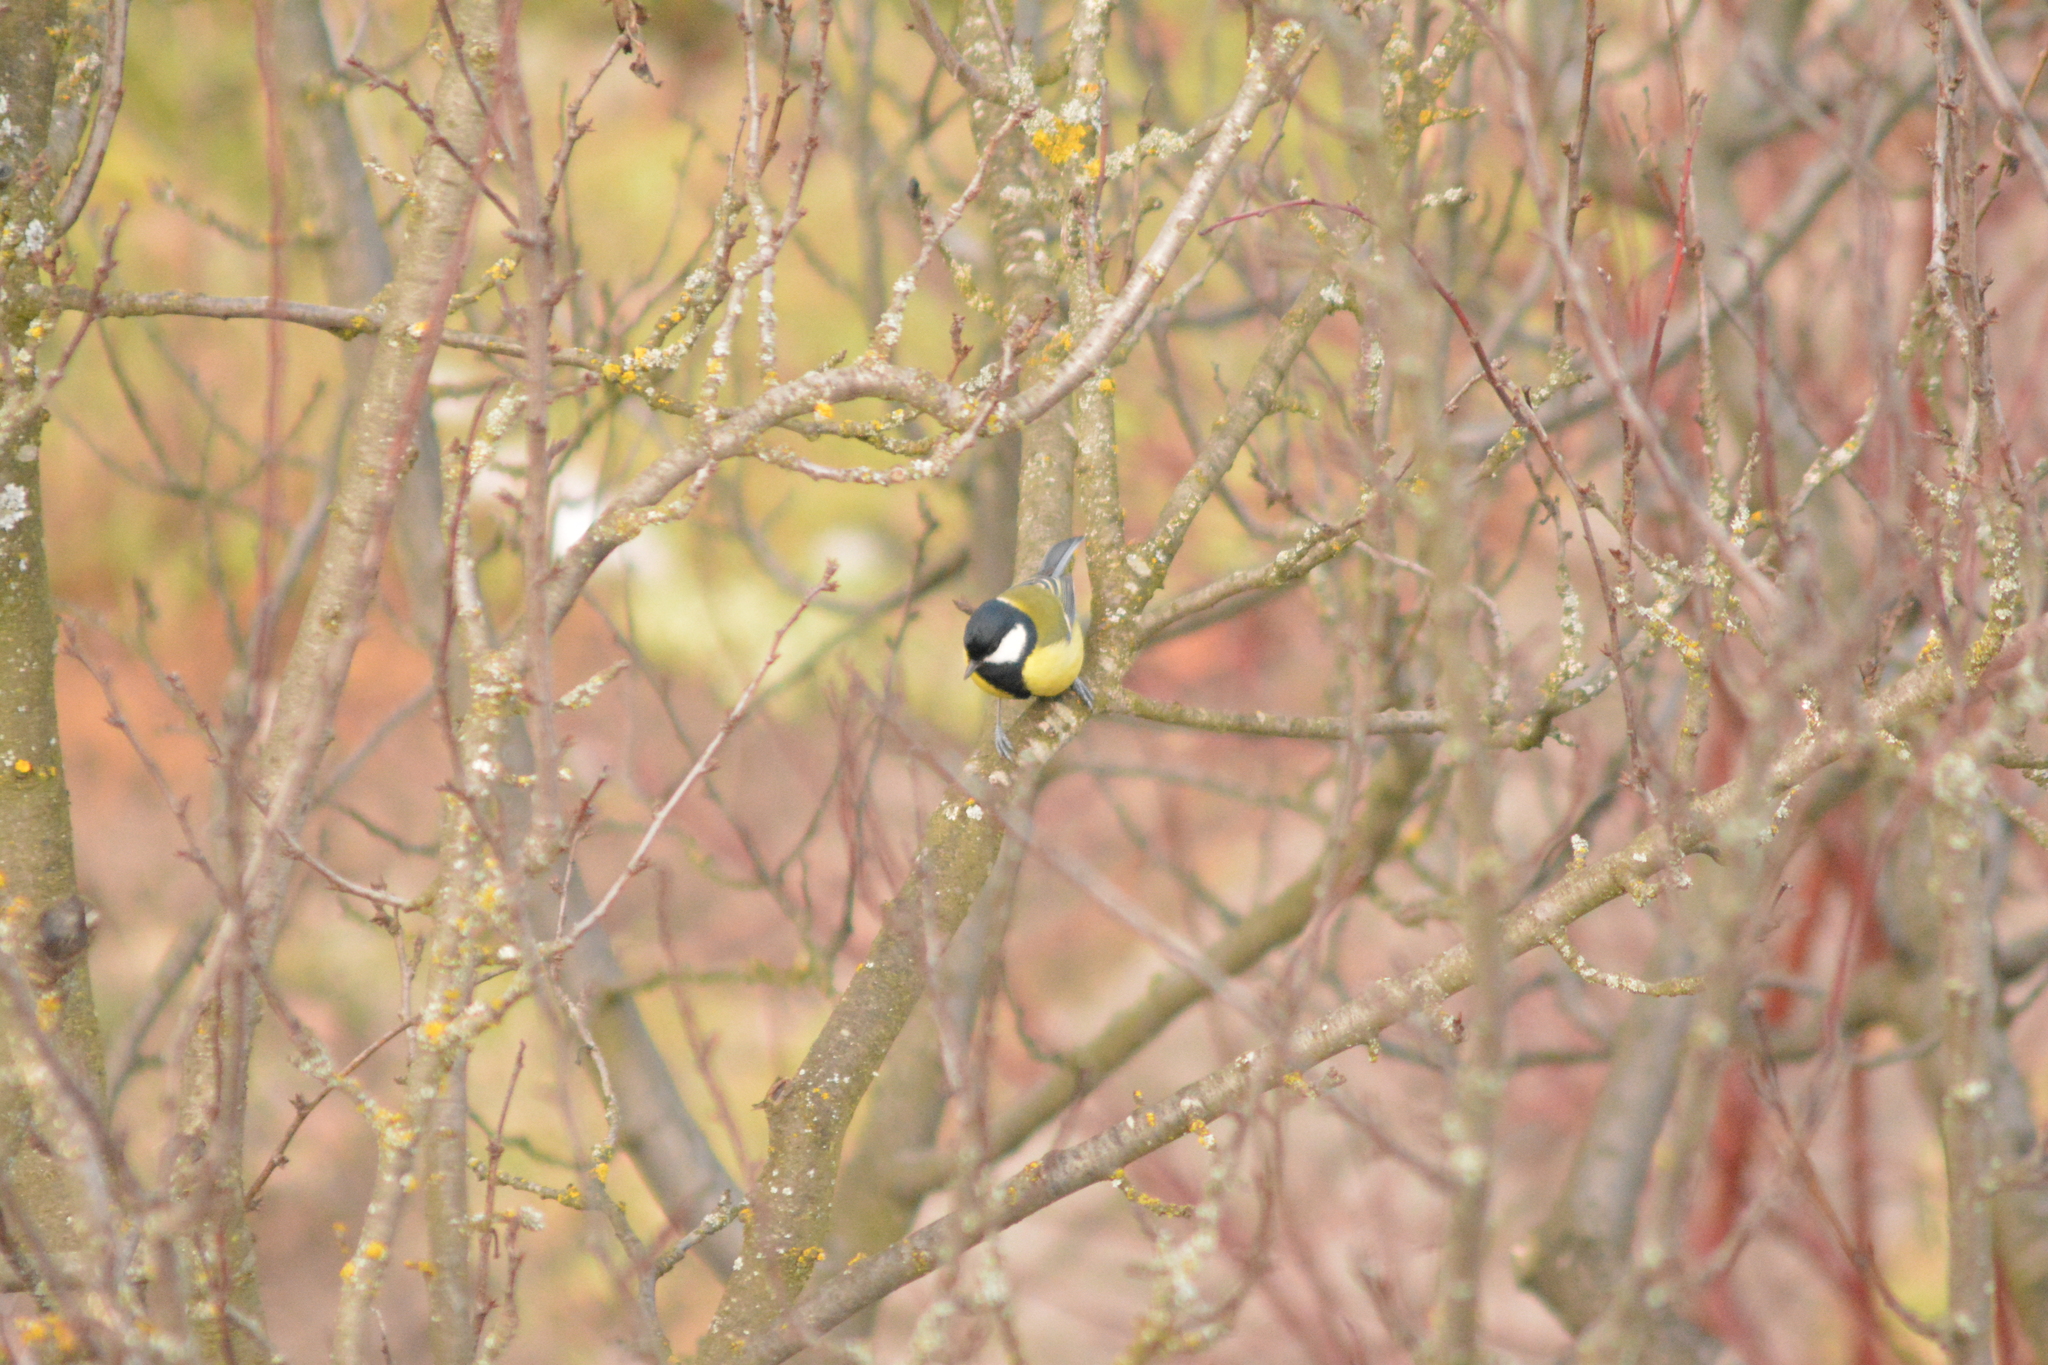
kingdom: Animalia
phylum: Chordata
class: Aves
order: Passeriformes
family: Paridae
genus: Parus
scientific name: Parus major
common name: Great tit
